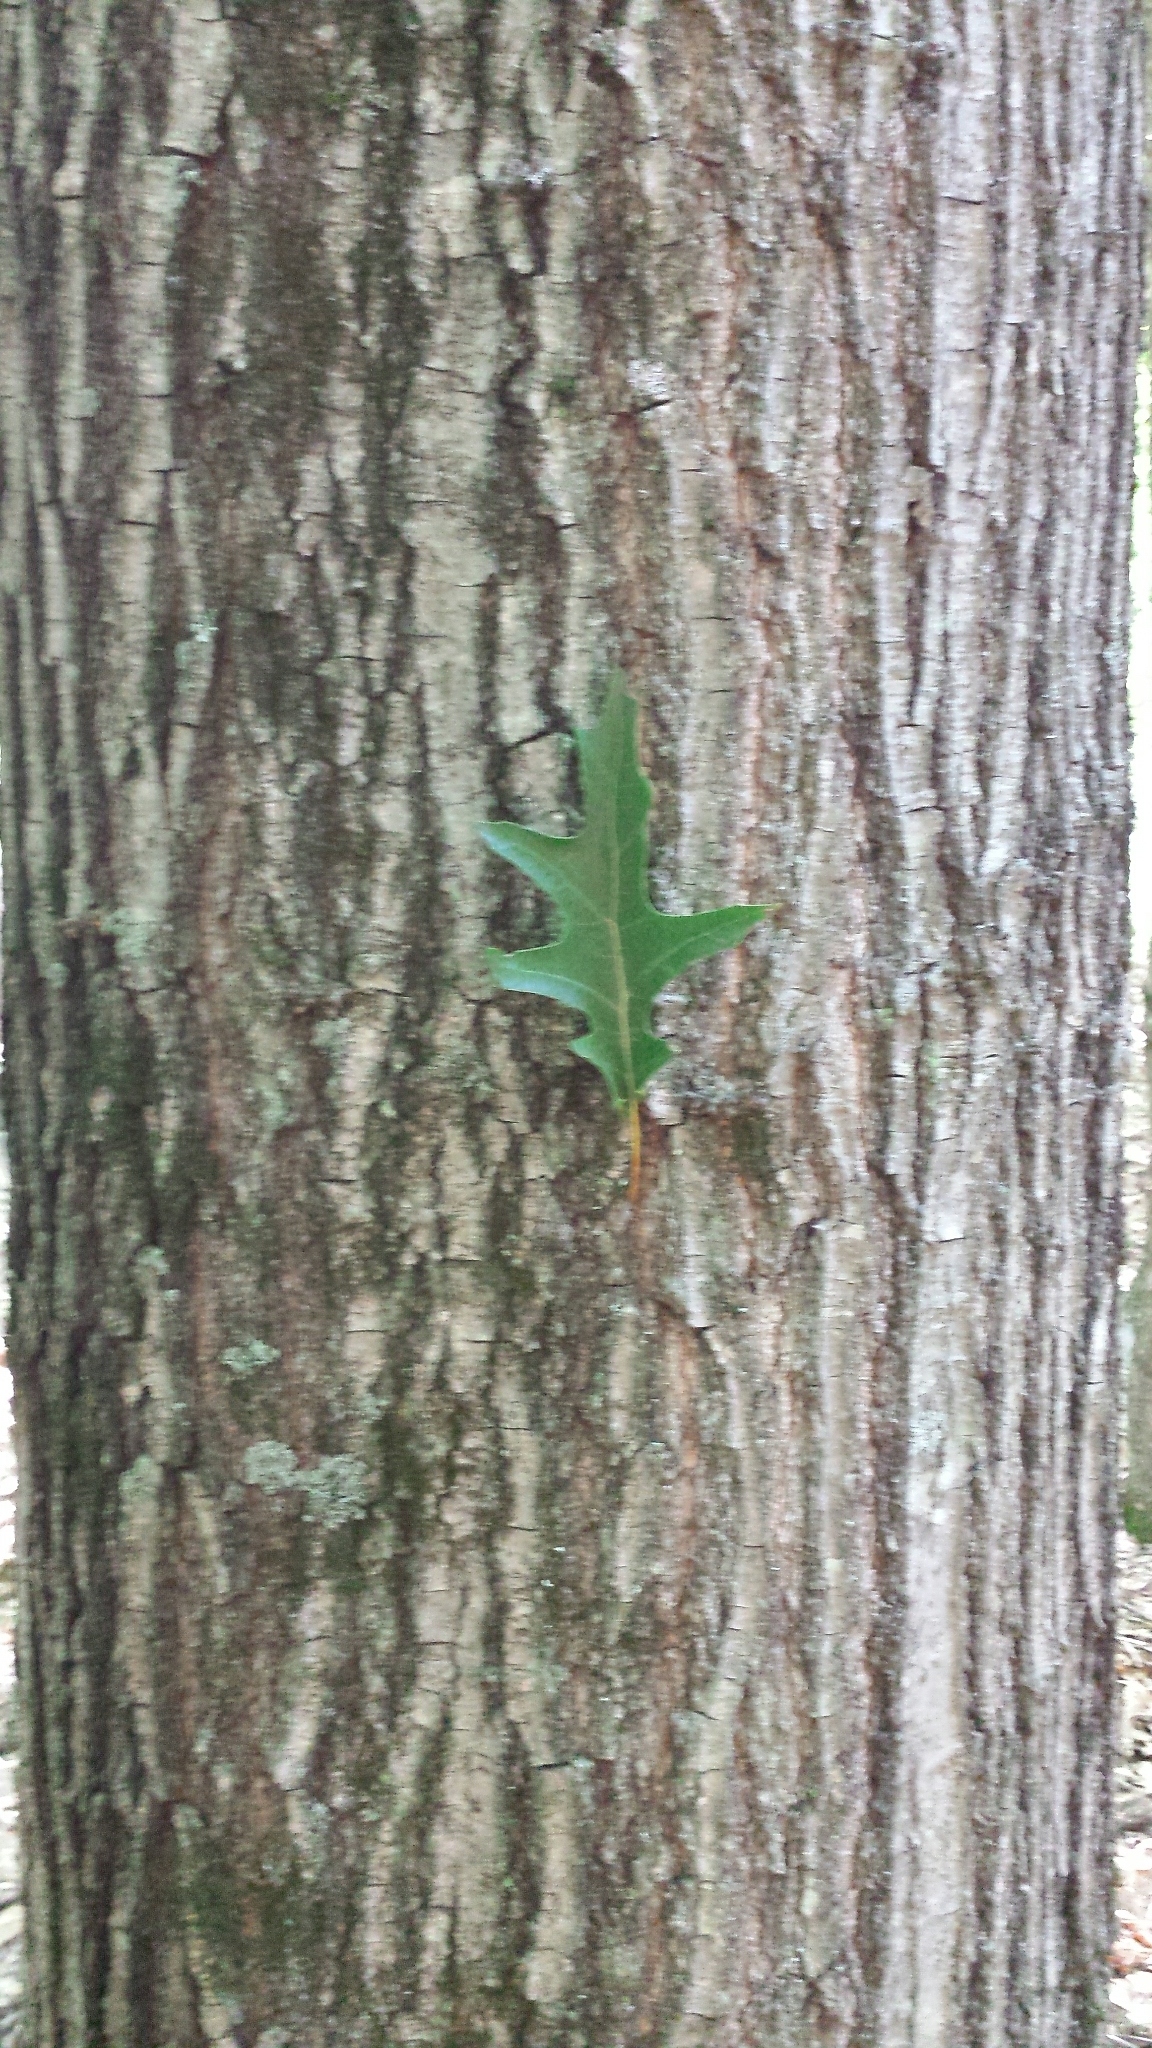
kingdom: Plantae
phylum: Tracheophyta
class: Magnoliopsida
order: Fagales
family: Fagaceae
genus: Quercus
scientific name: Quercus rubra
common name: Red oak
